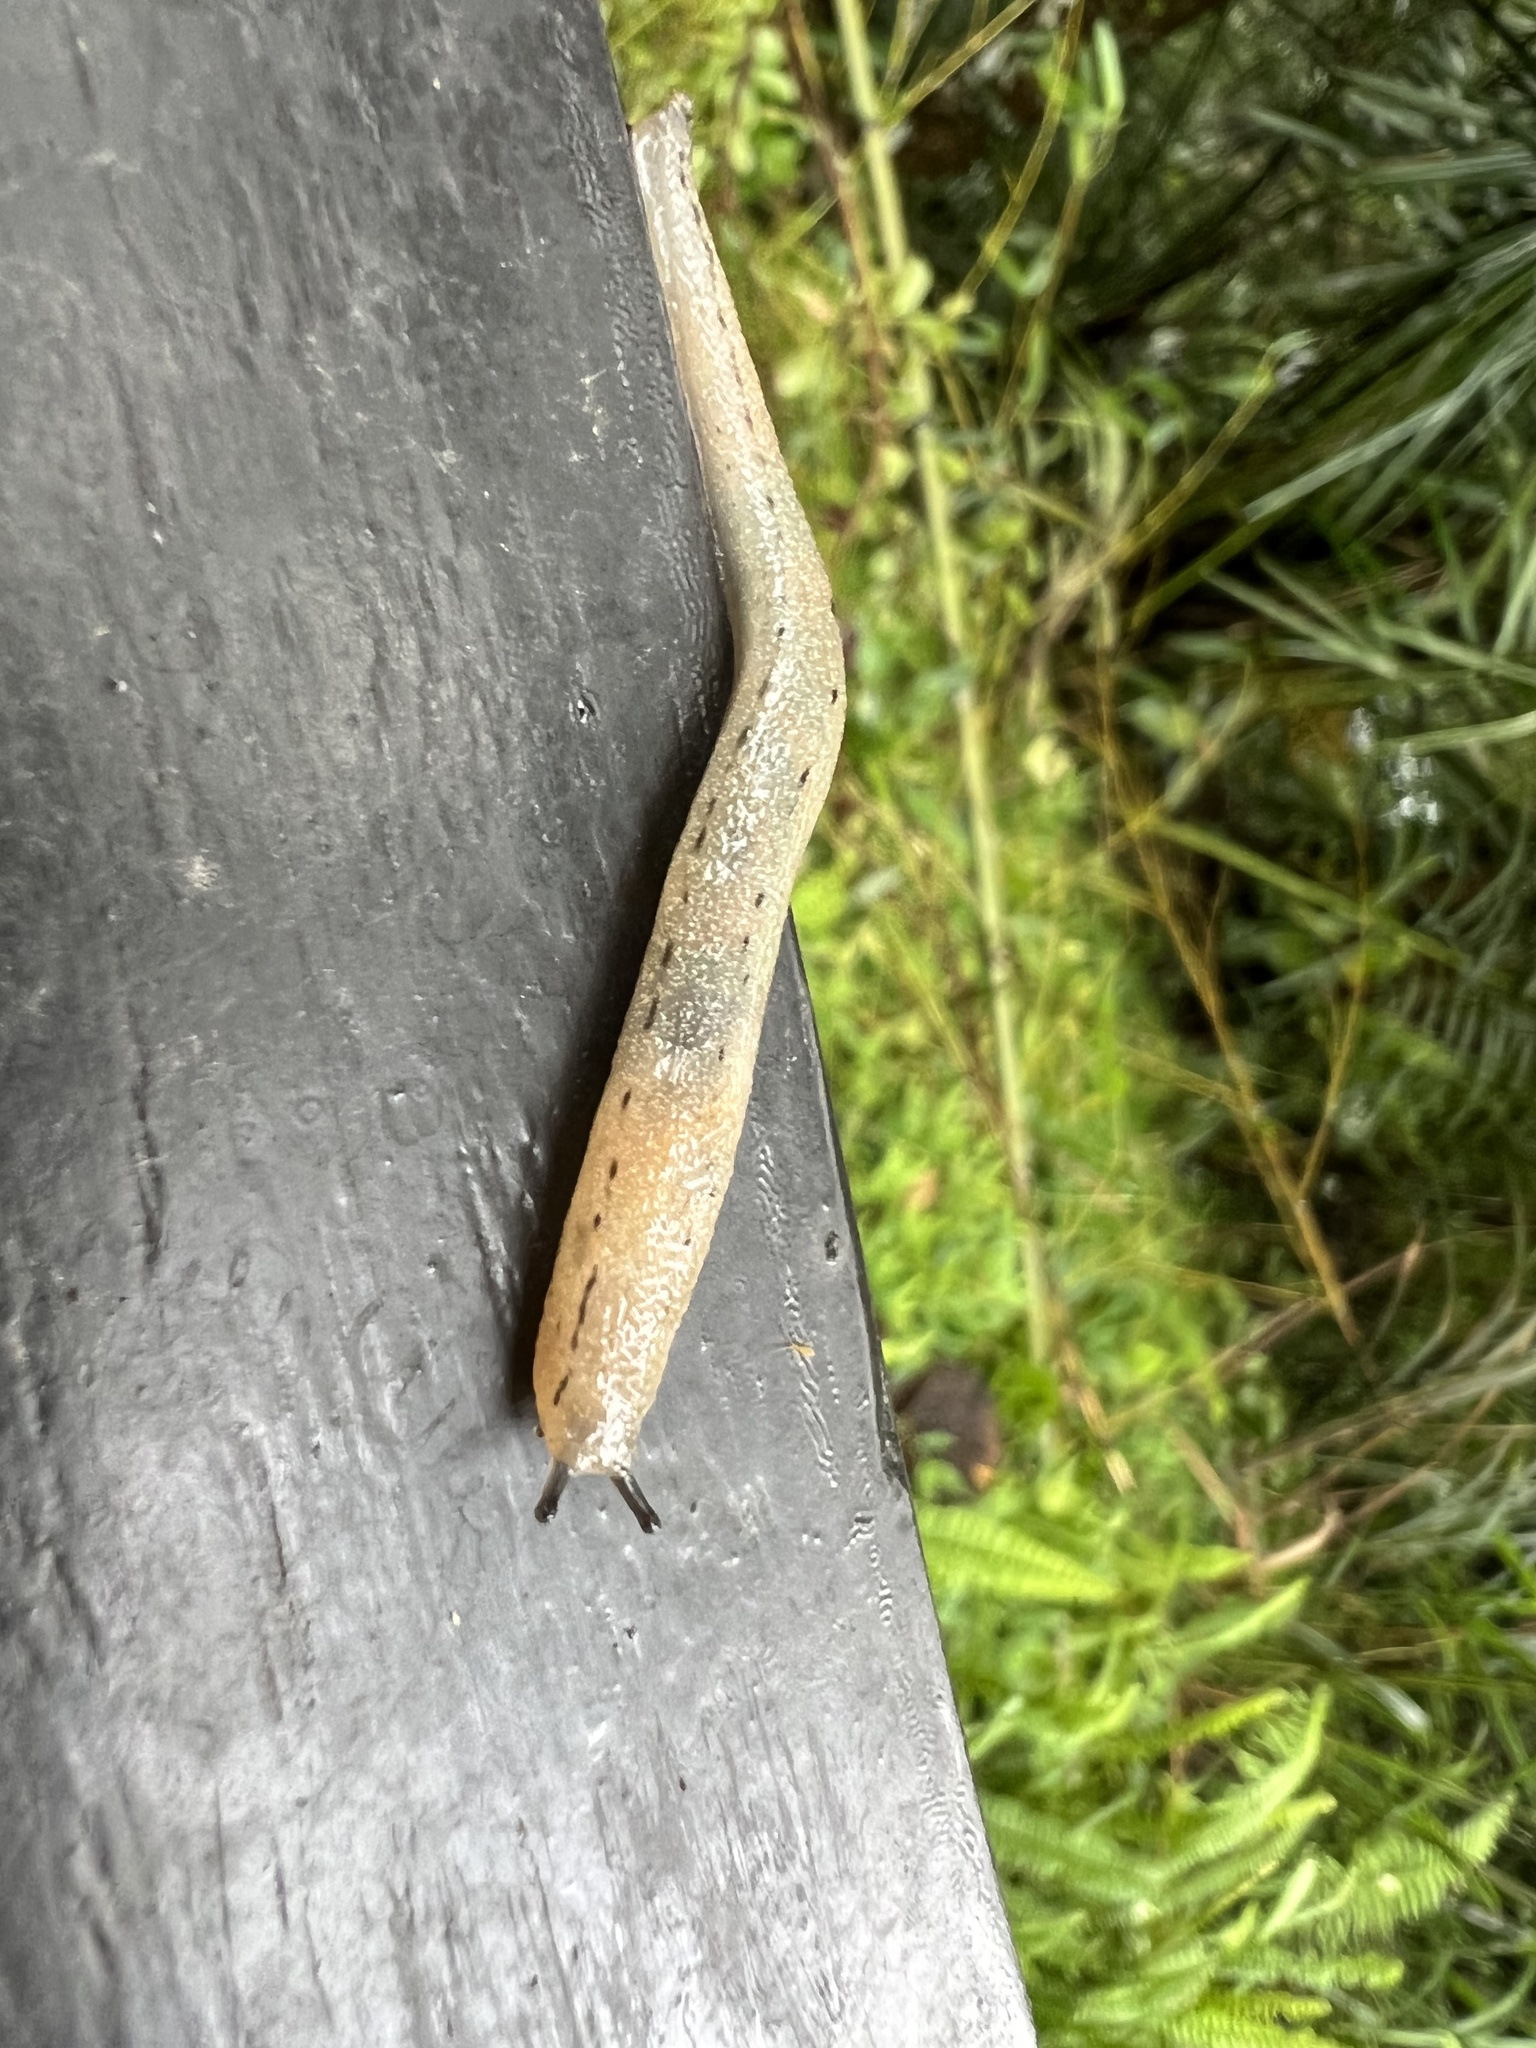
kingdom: Animalia
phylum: Mollusca
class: Gastropoda
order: Stylommatophora
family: Philomycidae
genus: Meghimatium
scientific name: Meghimatium bilineatum
